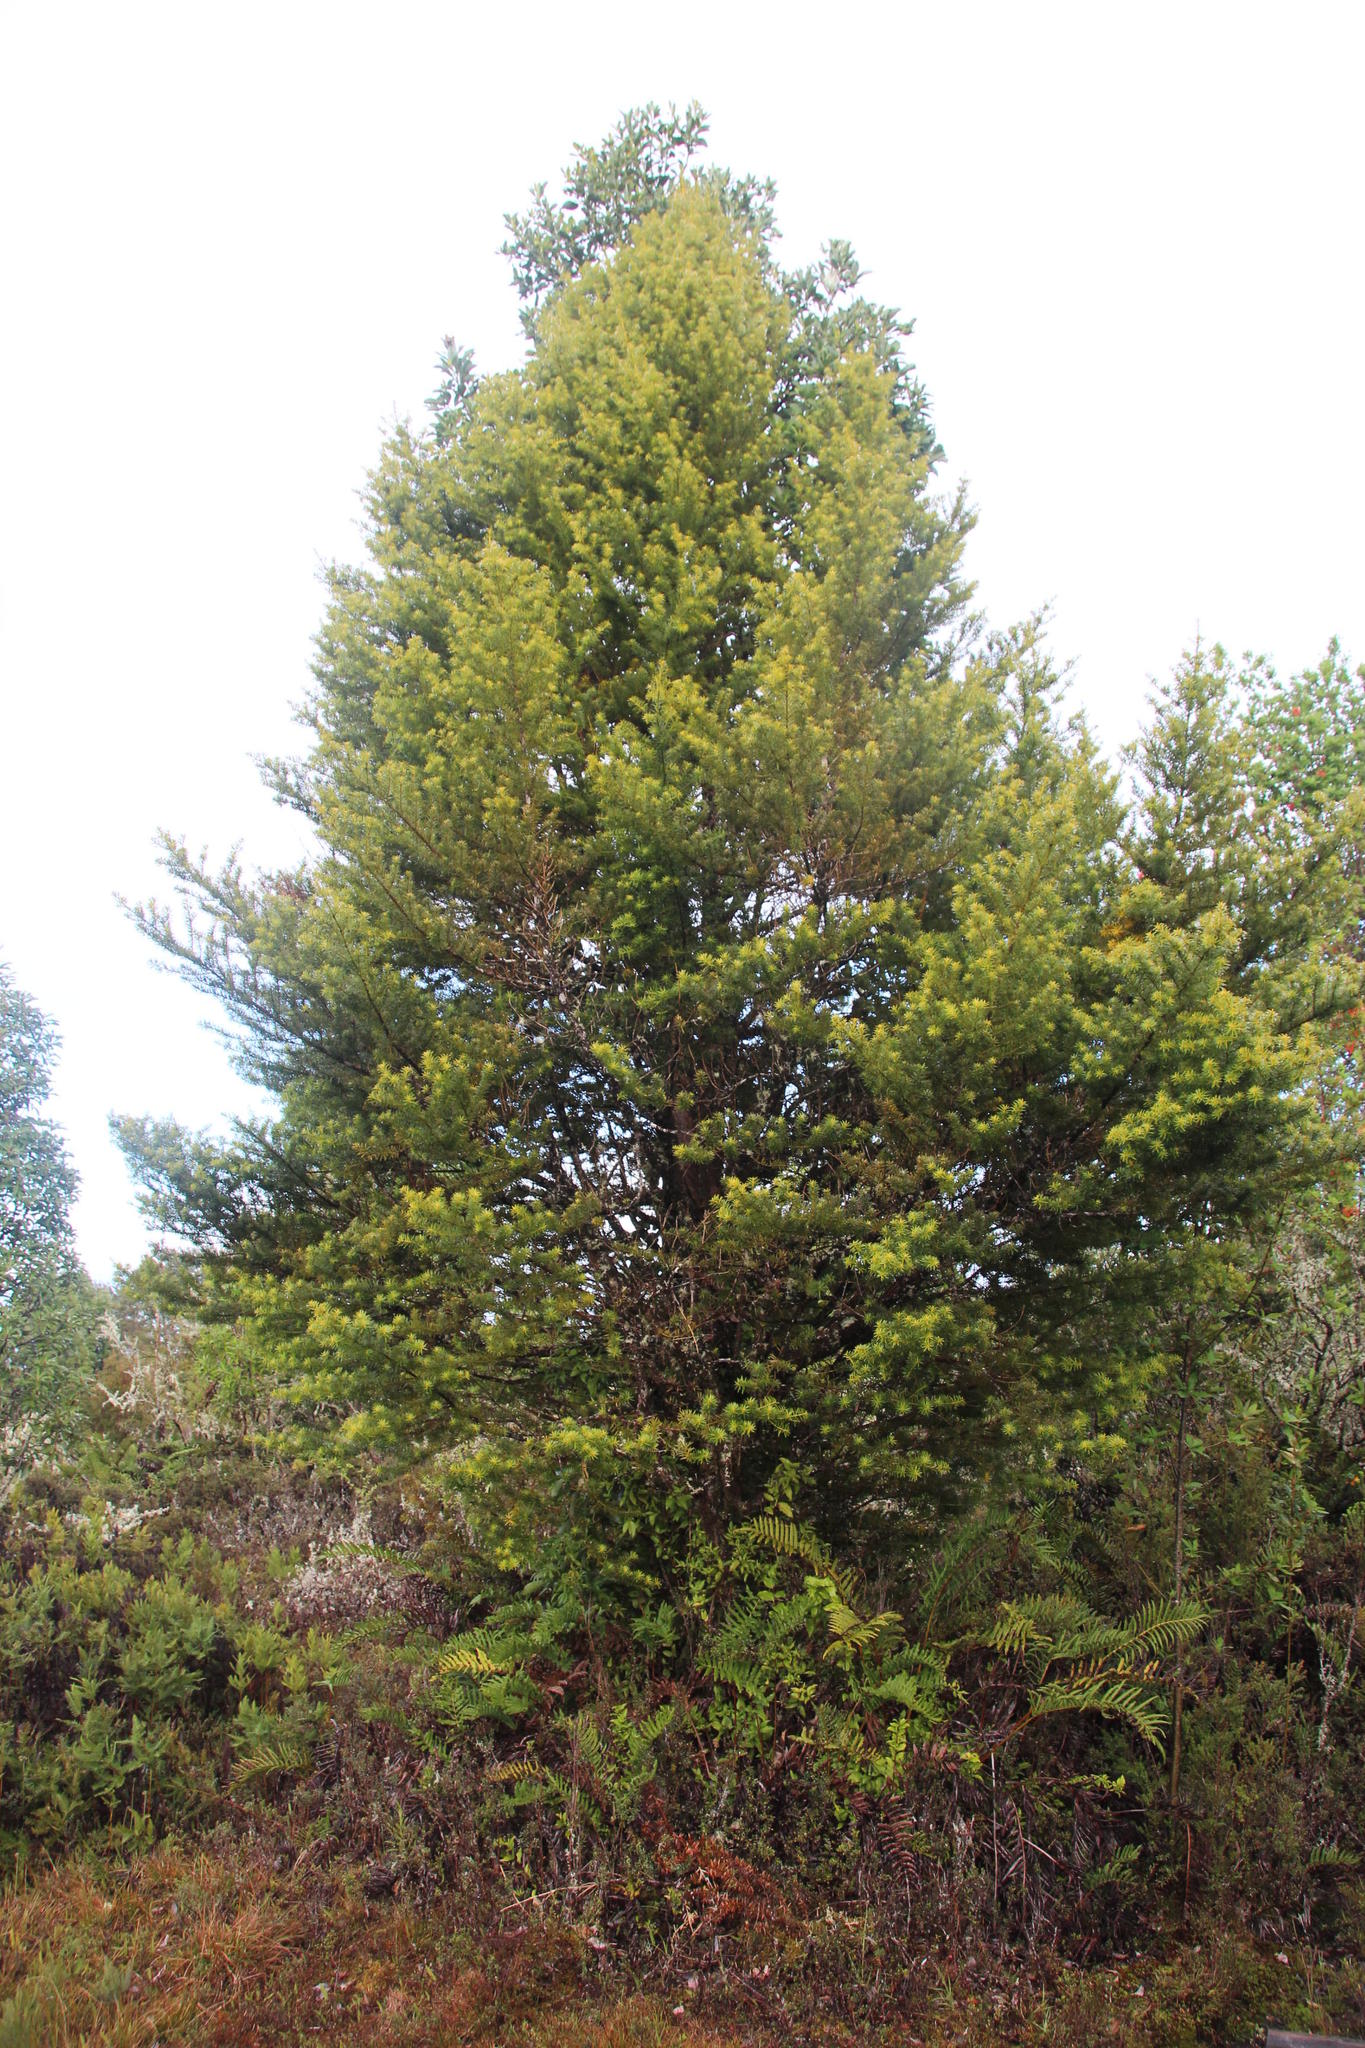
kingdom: Plantae
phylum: Tracheophyta
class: Pinopsida
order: Pinales
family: Podocarpaceae
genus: Podocarpus
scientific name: Podocarpus nubigenus
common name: Cloud podocarp
